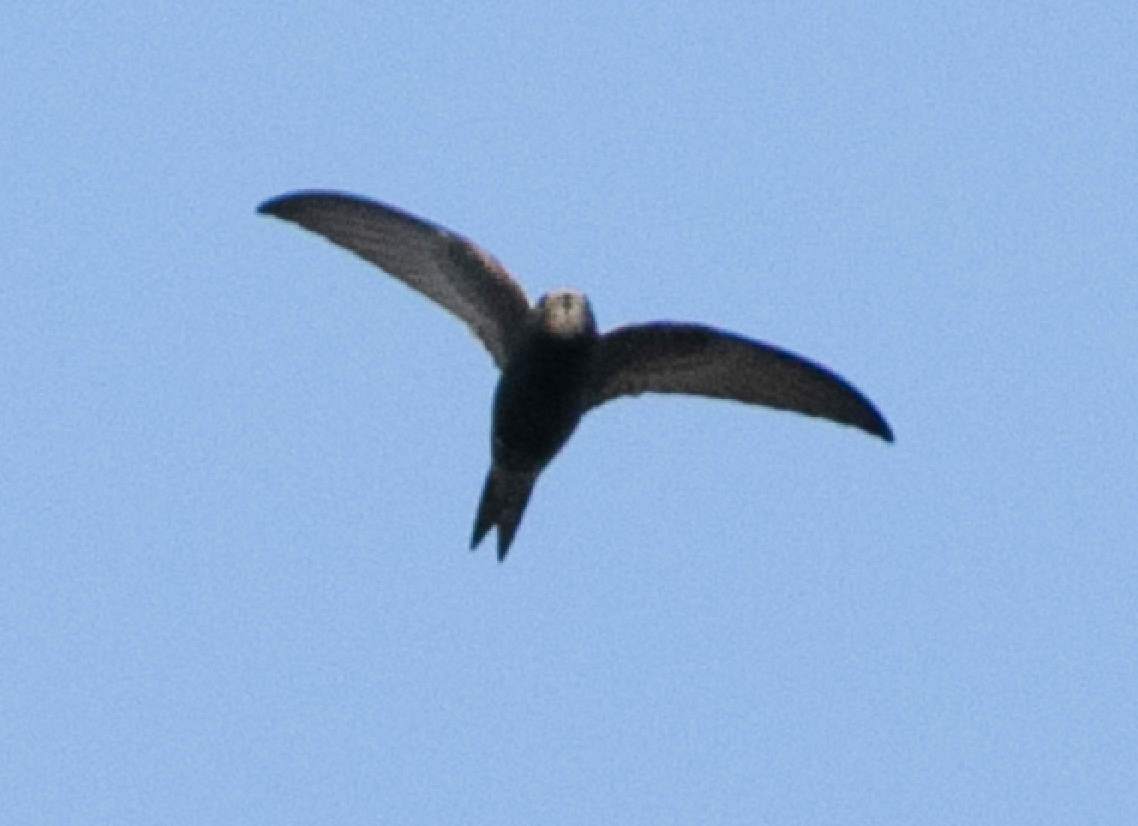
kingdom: Animalia
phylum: Chordata
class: Aves
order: Apodiformes
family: Apodidae
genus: Apus
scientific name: Apus apus
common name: Common swift
